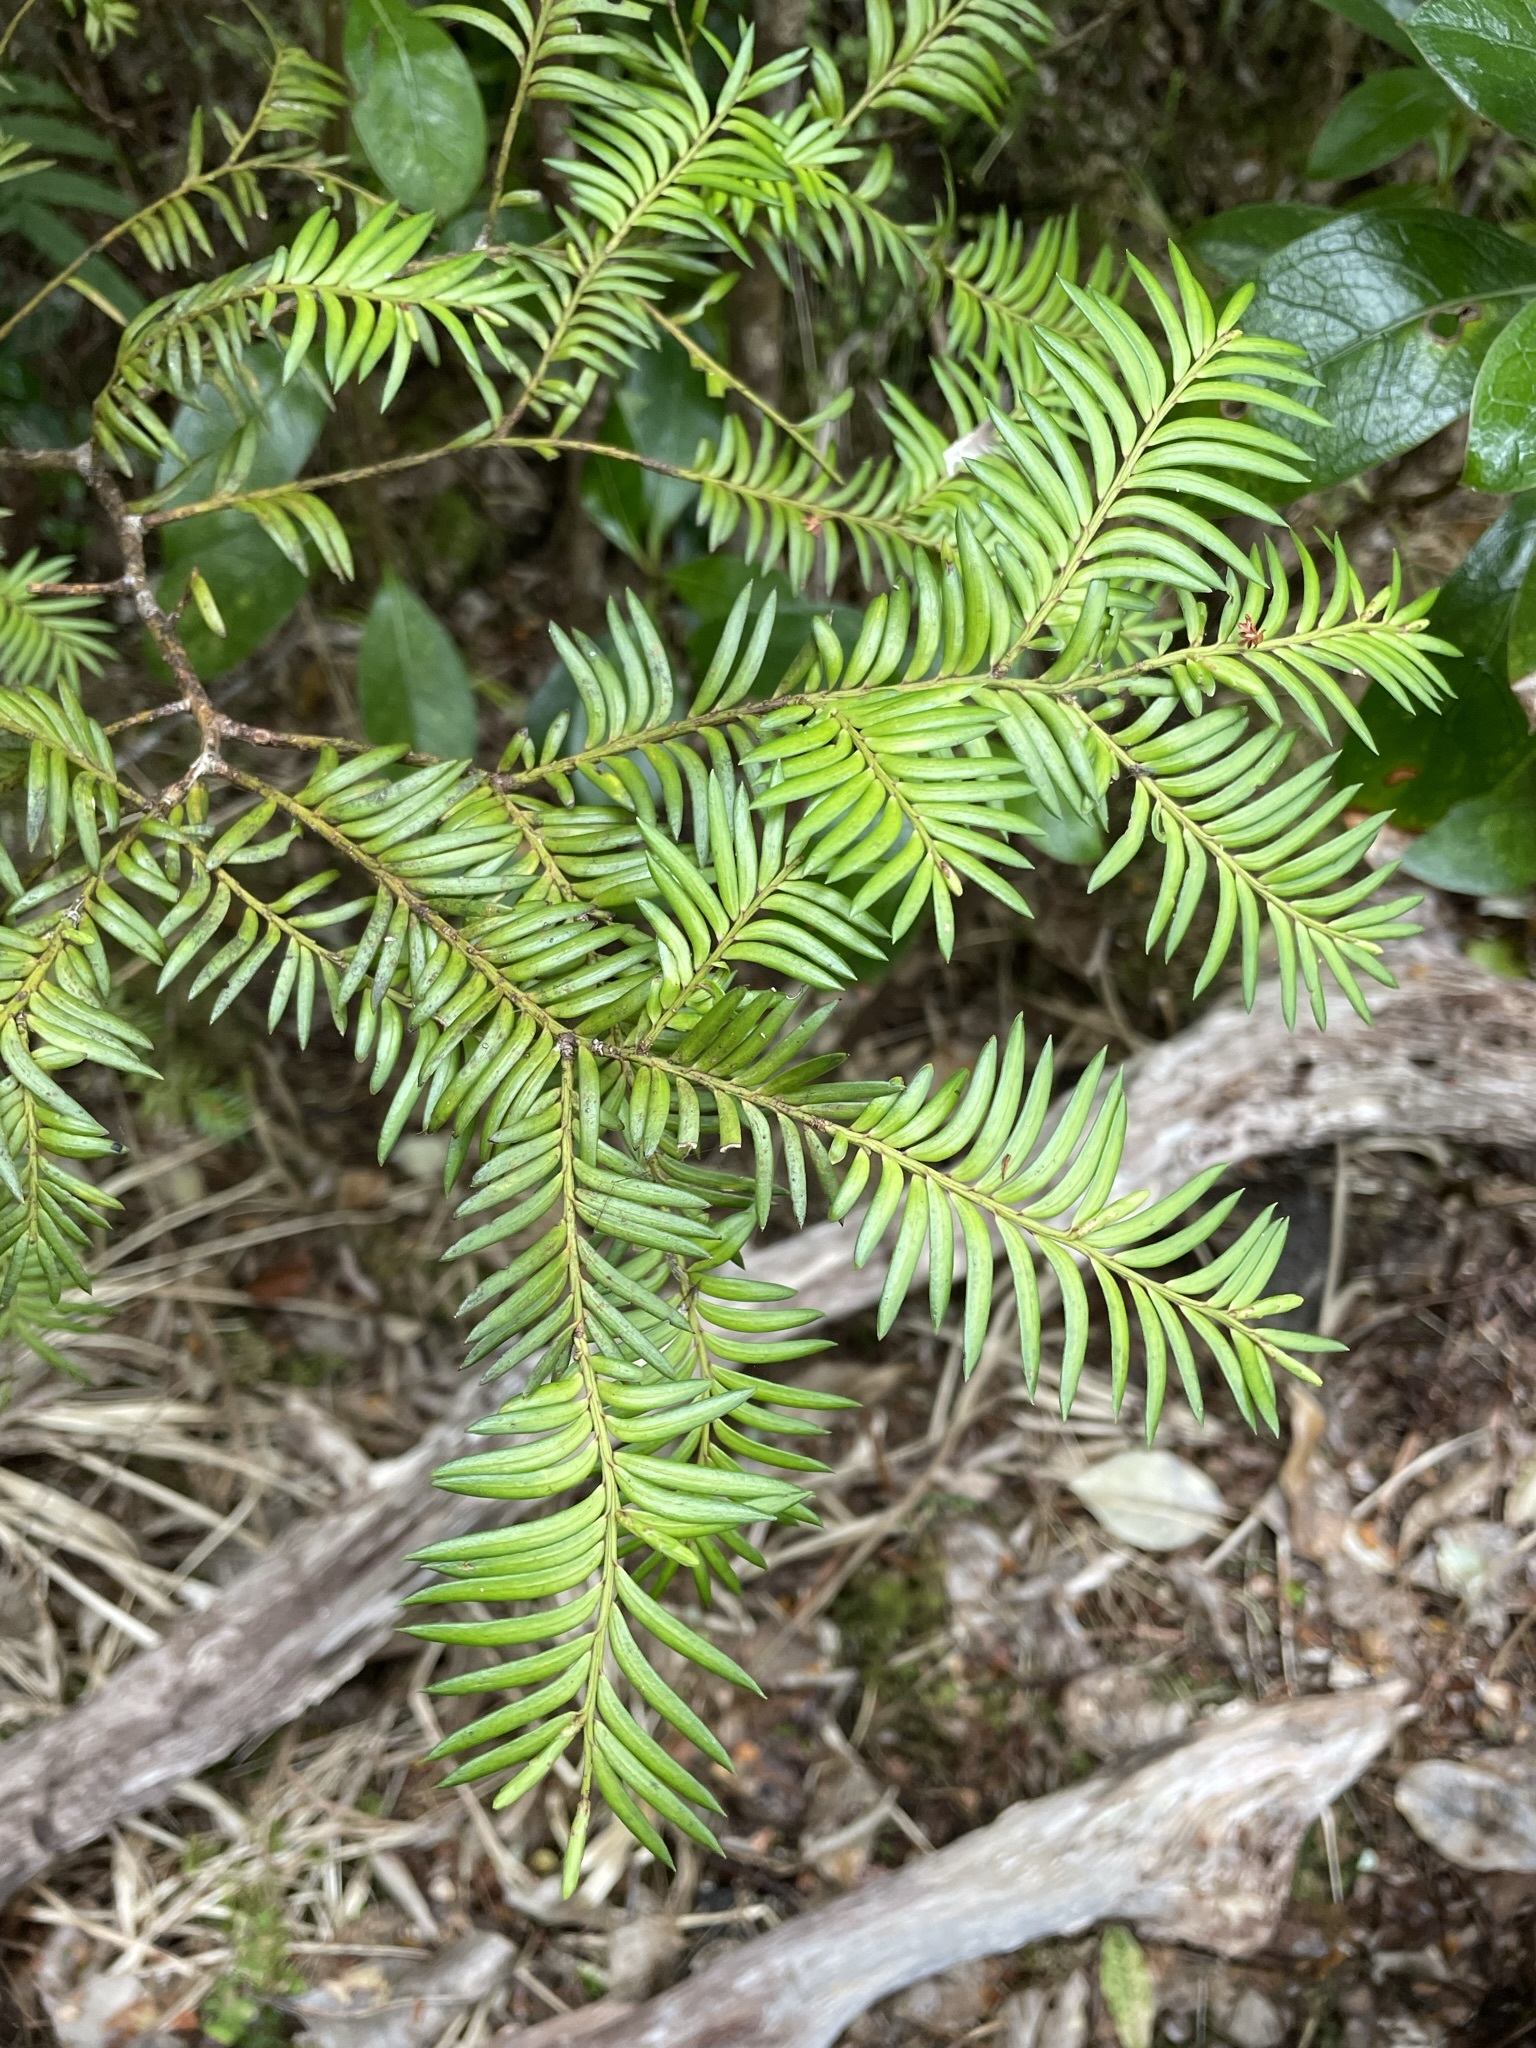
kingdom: Plantae
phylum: Tracheophyta
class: Pinopsida
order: Pinales
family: Podocarpaceae
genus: Prumnopitys
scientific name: Prumnopitys ferruginea
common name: Brown pine
